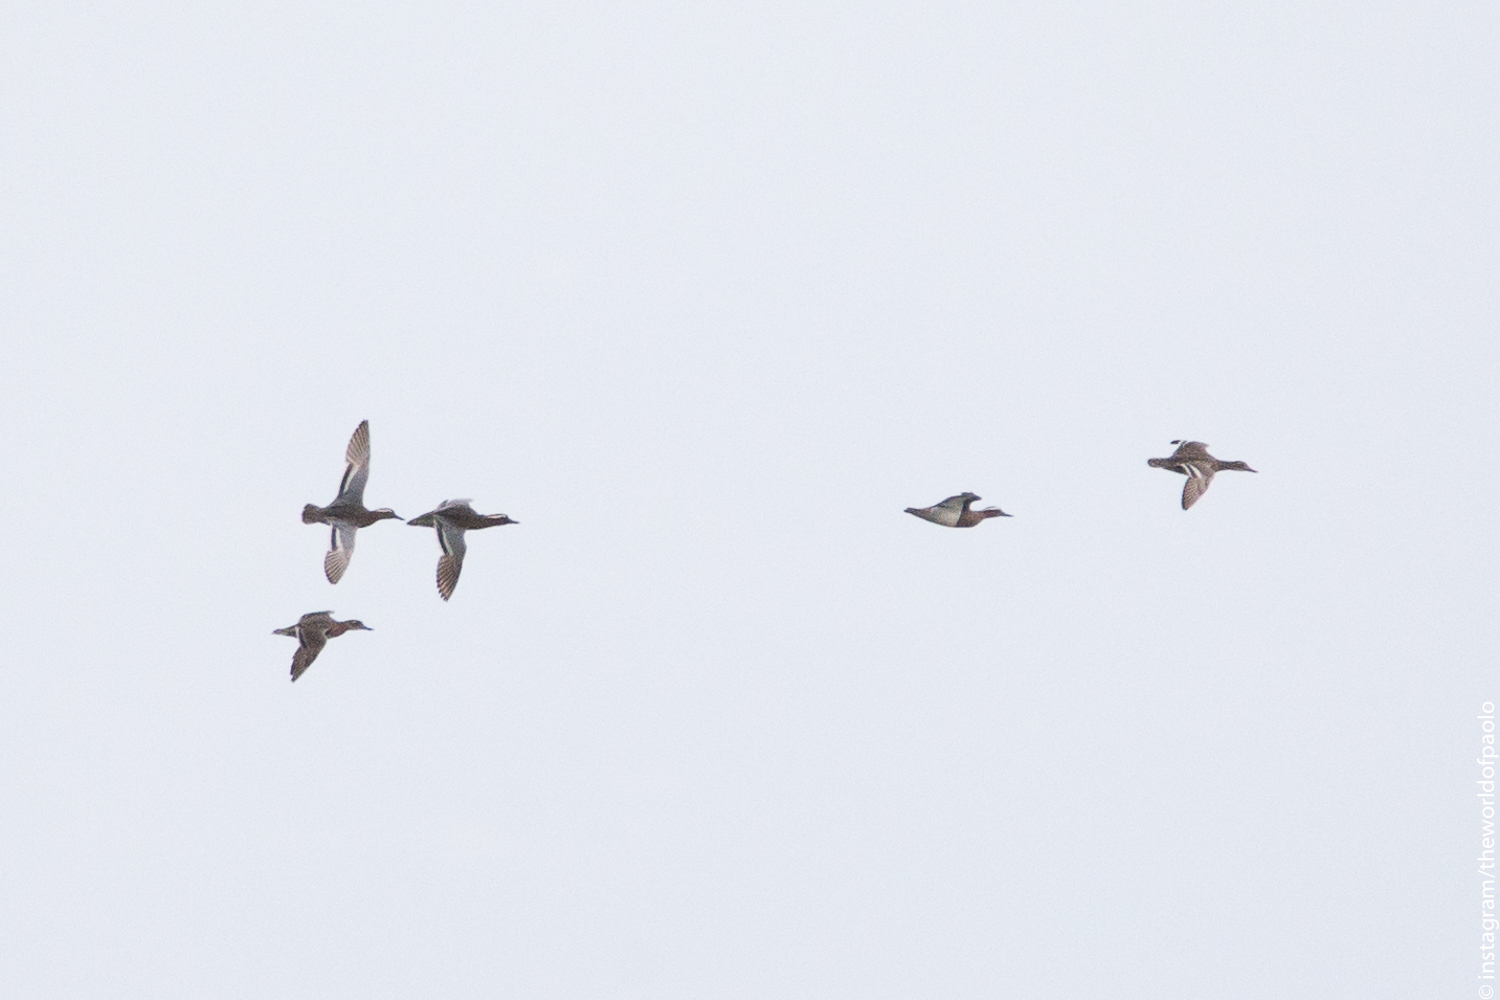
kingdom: Animalia
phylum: Chordata
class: Aves
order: Anseriformes
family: Anatidae
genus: Spatula
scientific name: Spatula querquedula
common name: Garganey
